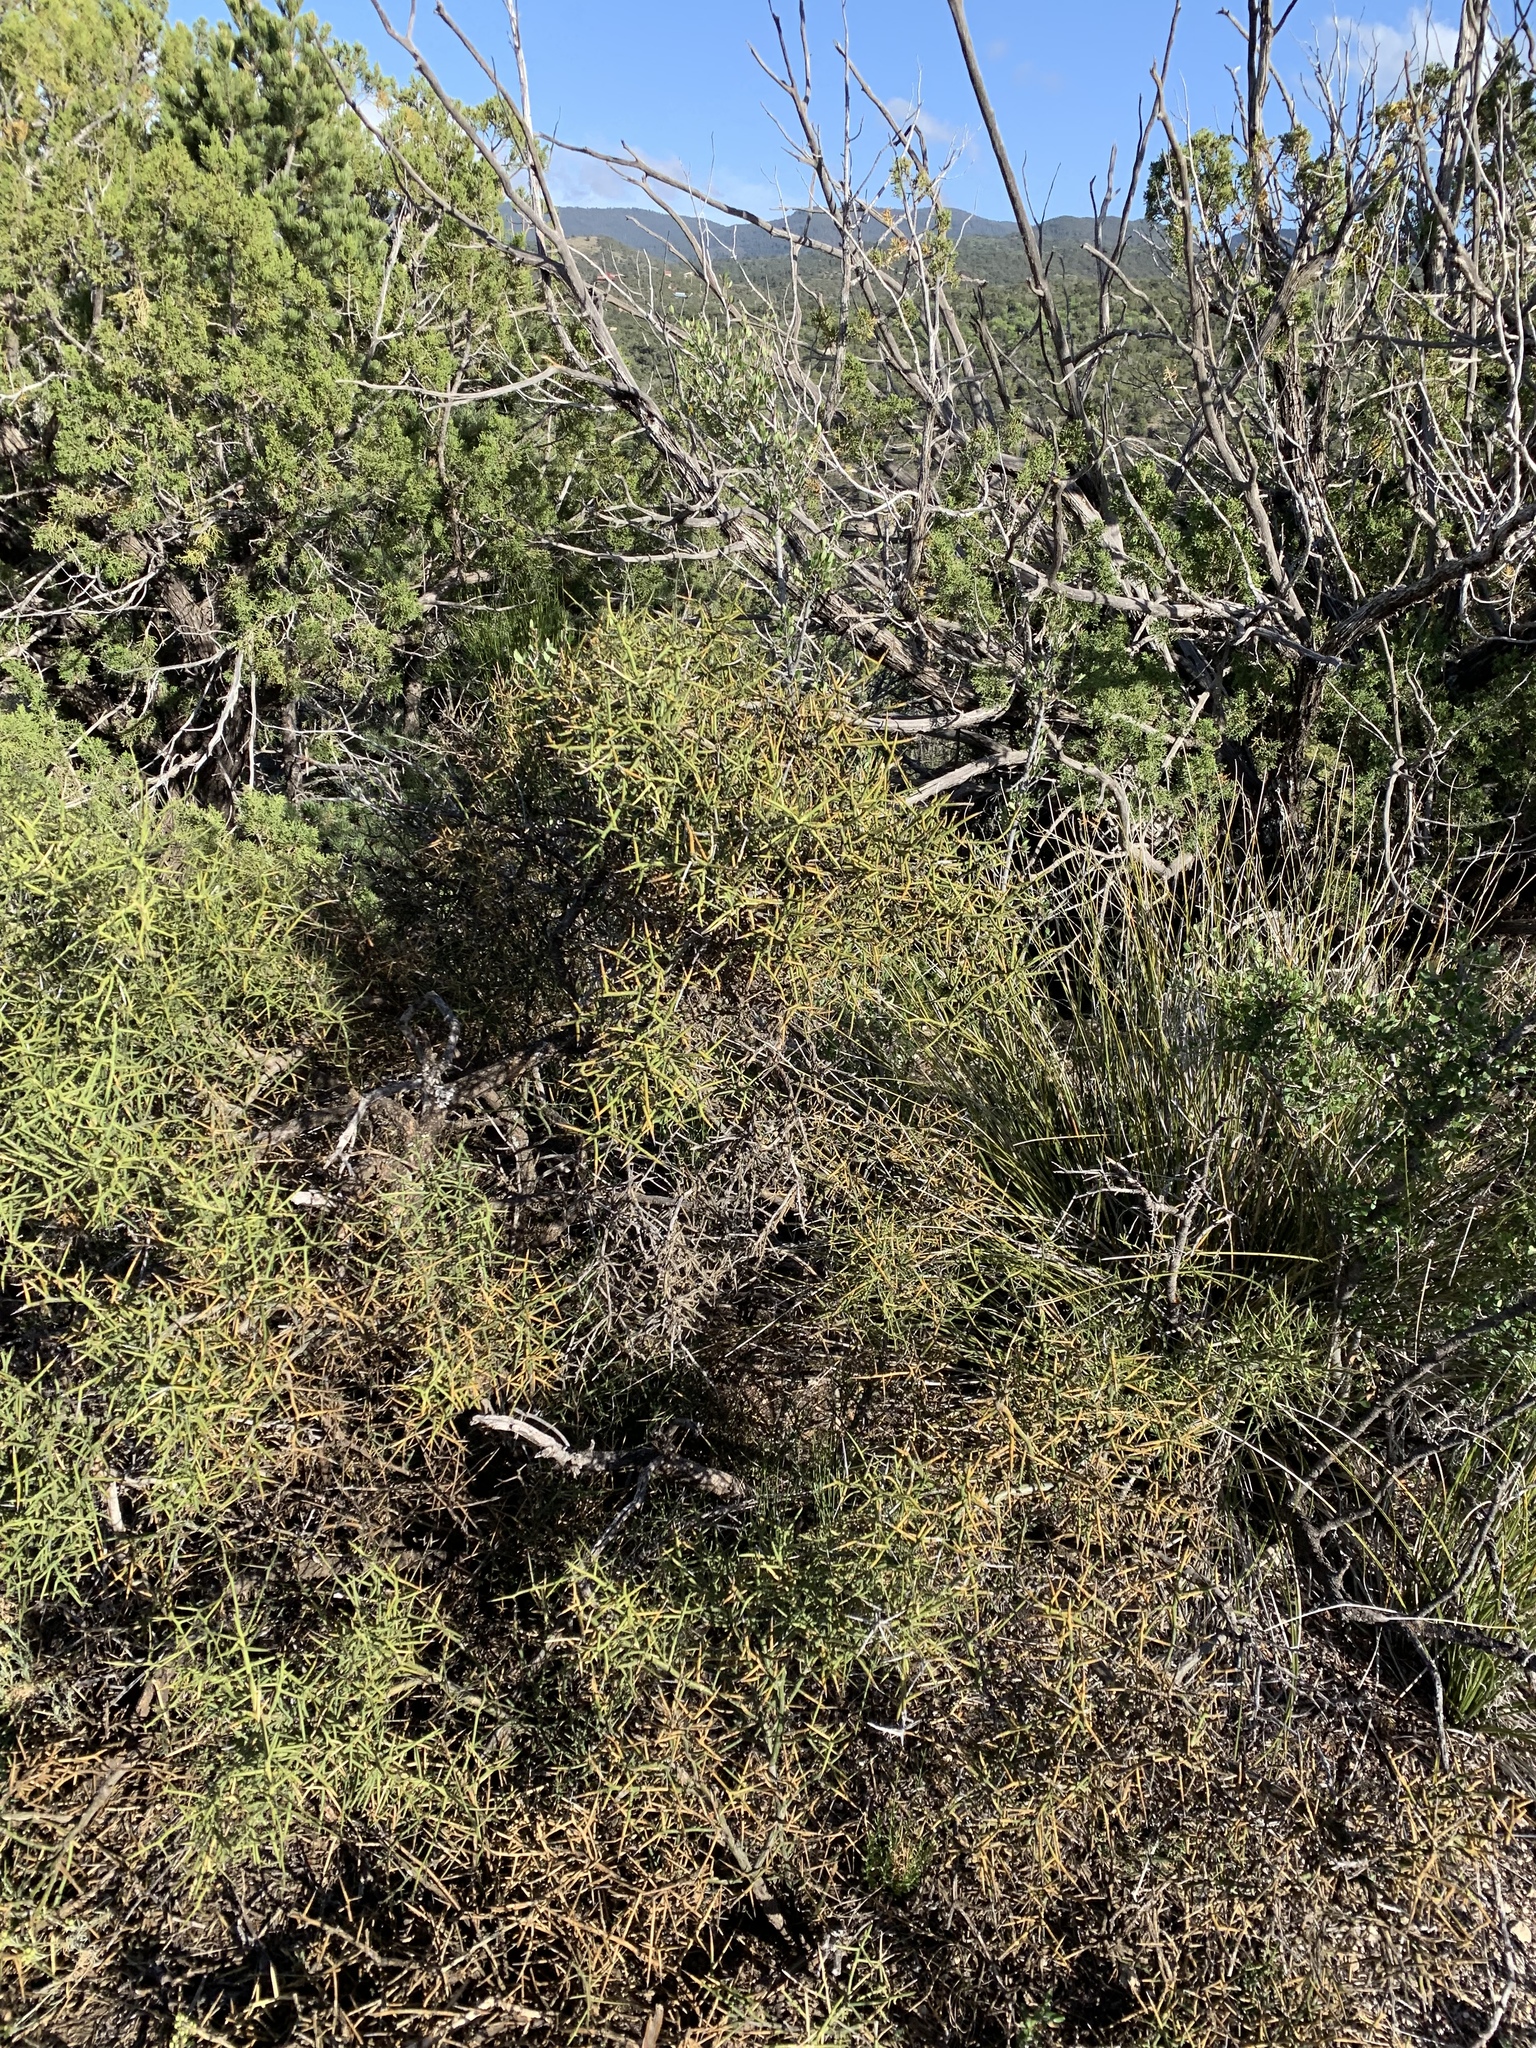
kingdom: Plantae
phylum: Tracheophyta
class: Magnoliopsida
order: Brassicales
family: Koeberliniaceae
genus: Koeberlinia
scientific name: Koeberlinia spinosa
